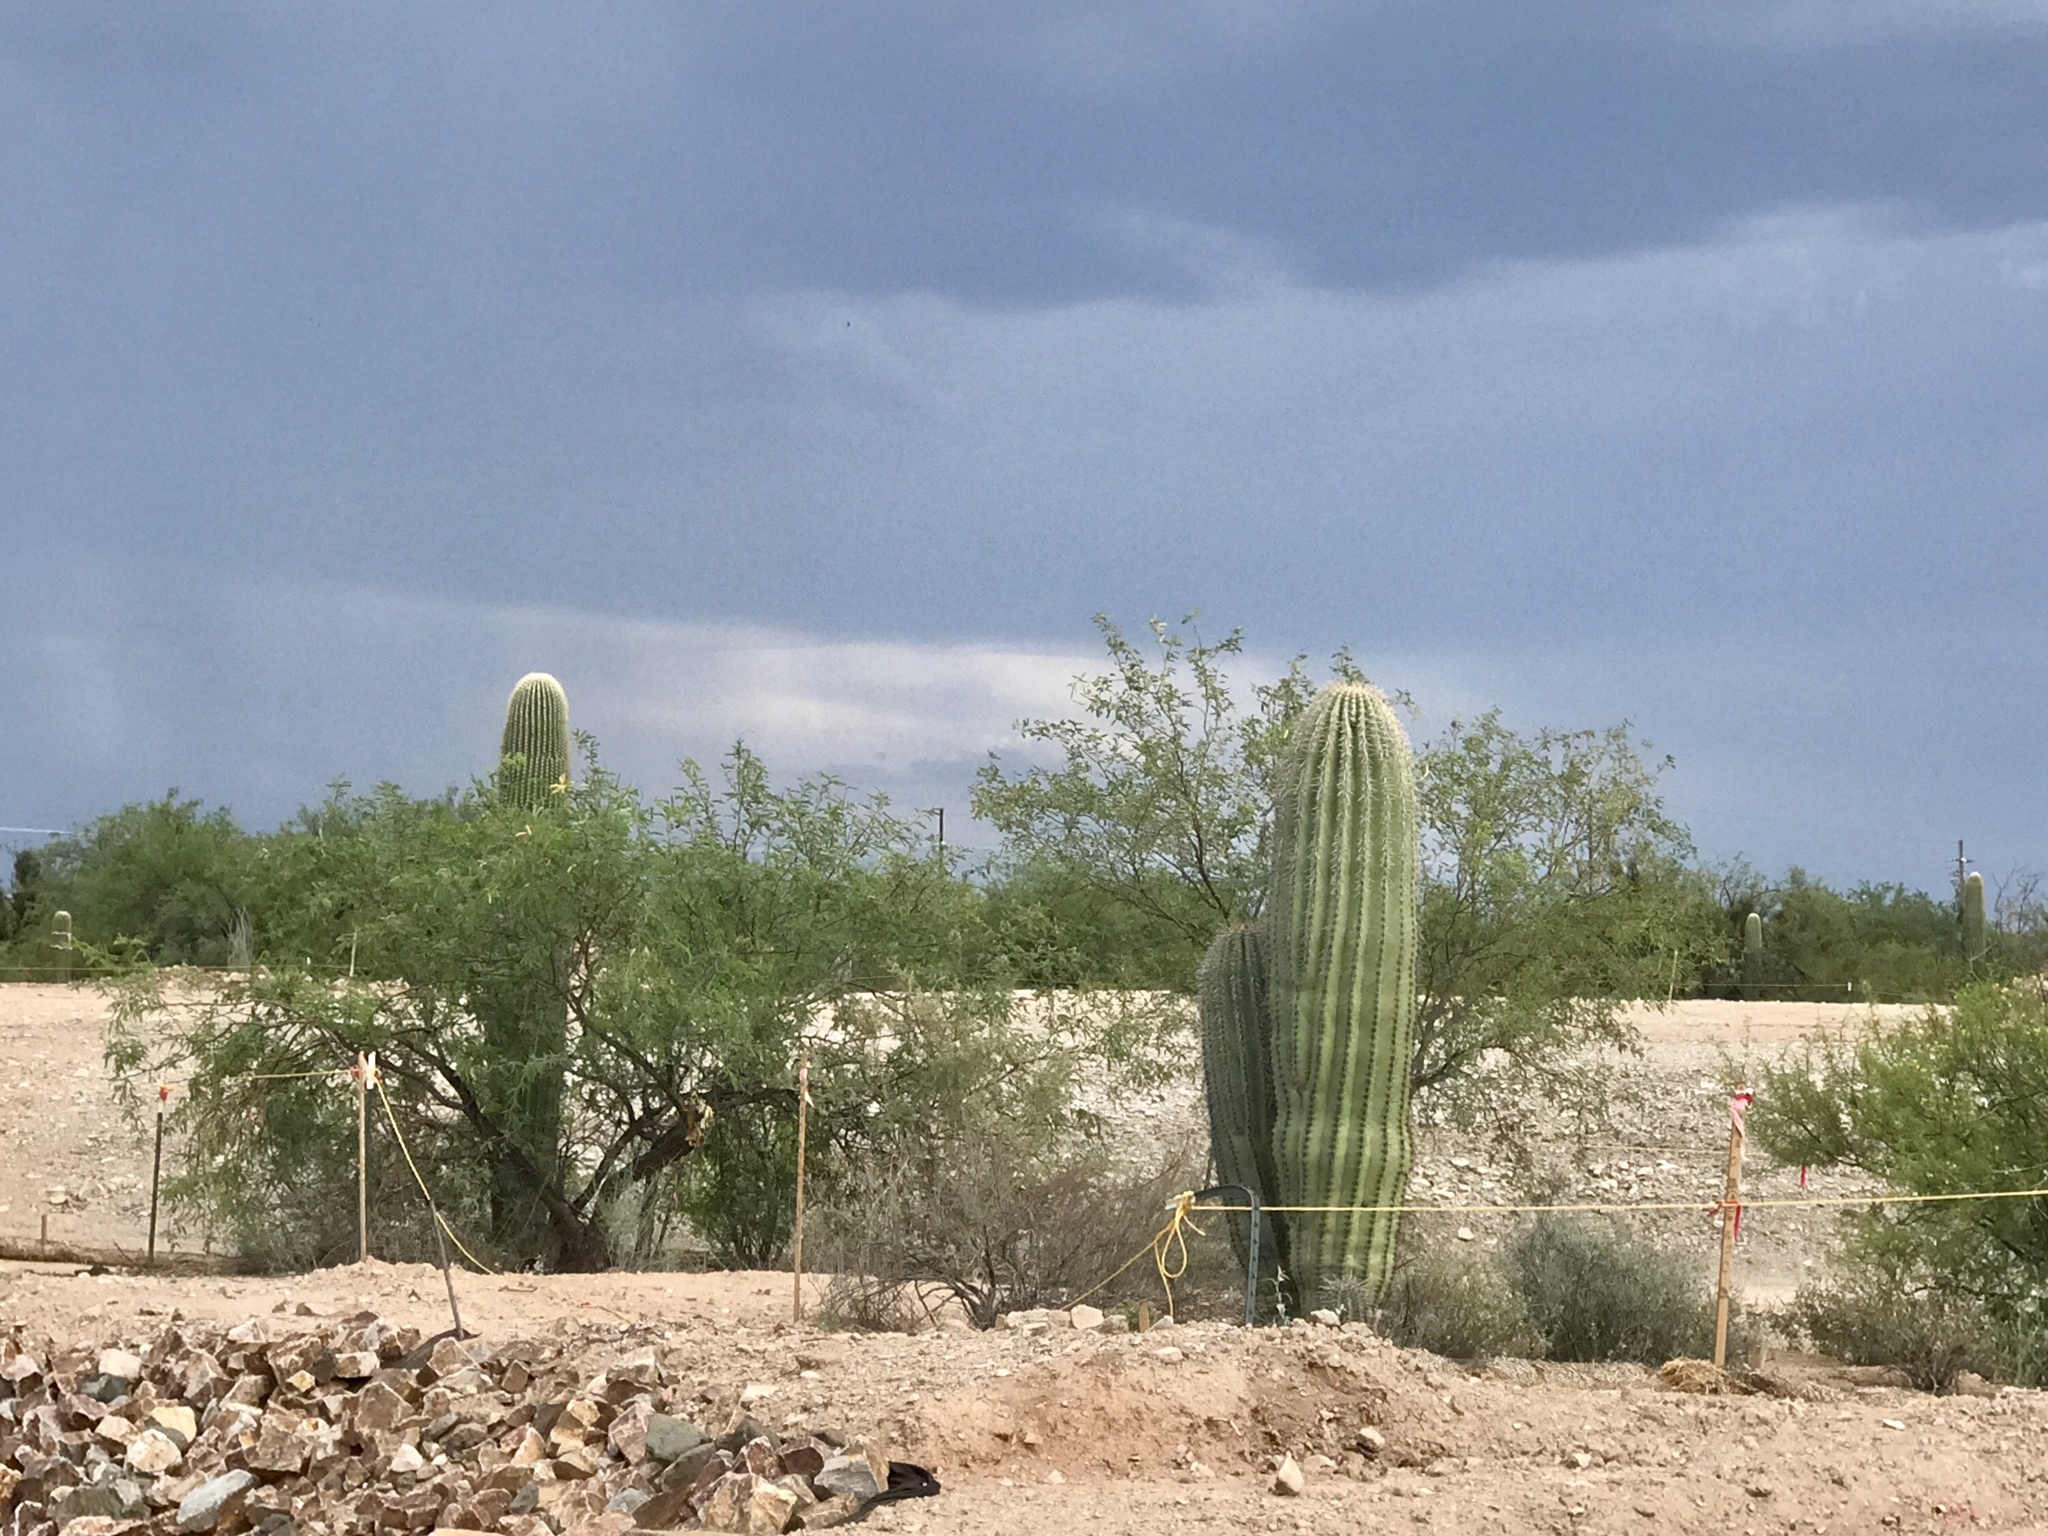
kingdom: Plantae
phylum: Tracheophyta
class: Magnoliopsida
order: Caryophyllales
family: Cactaceae
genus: Carnegiea
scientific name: Carnegiea gigantea
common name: Saguaro
